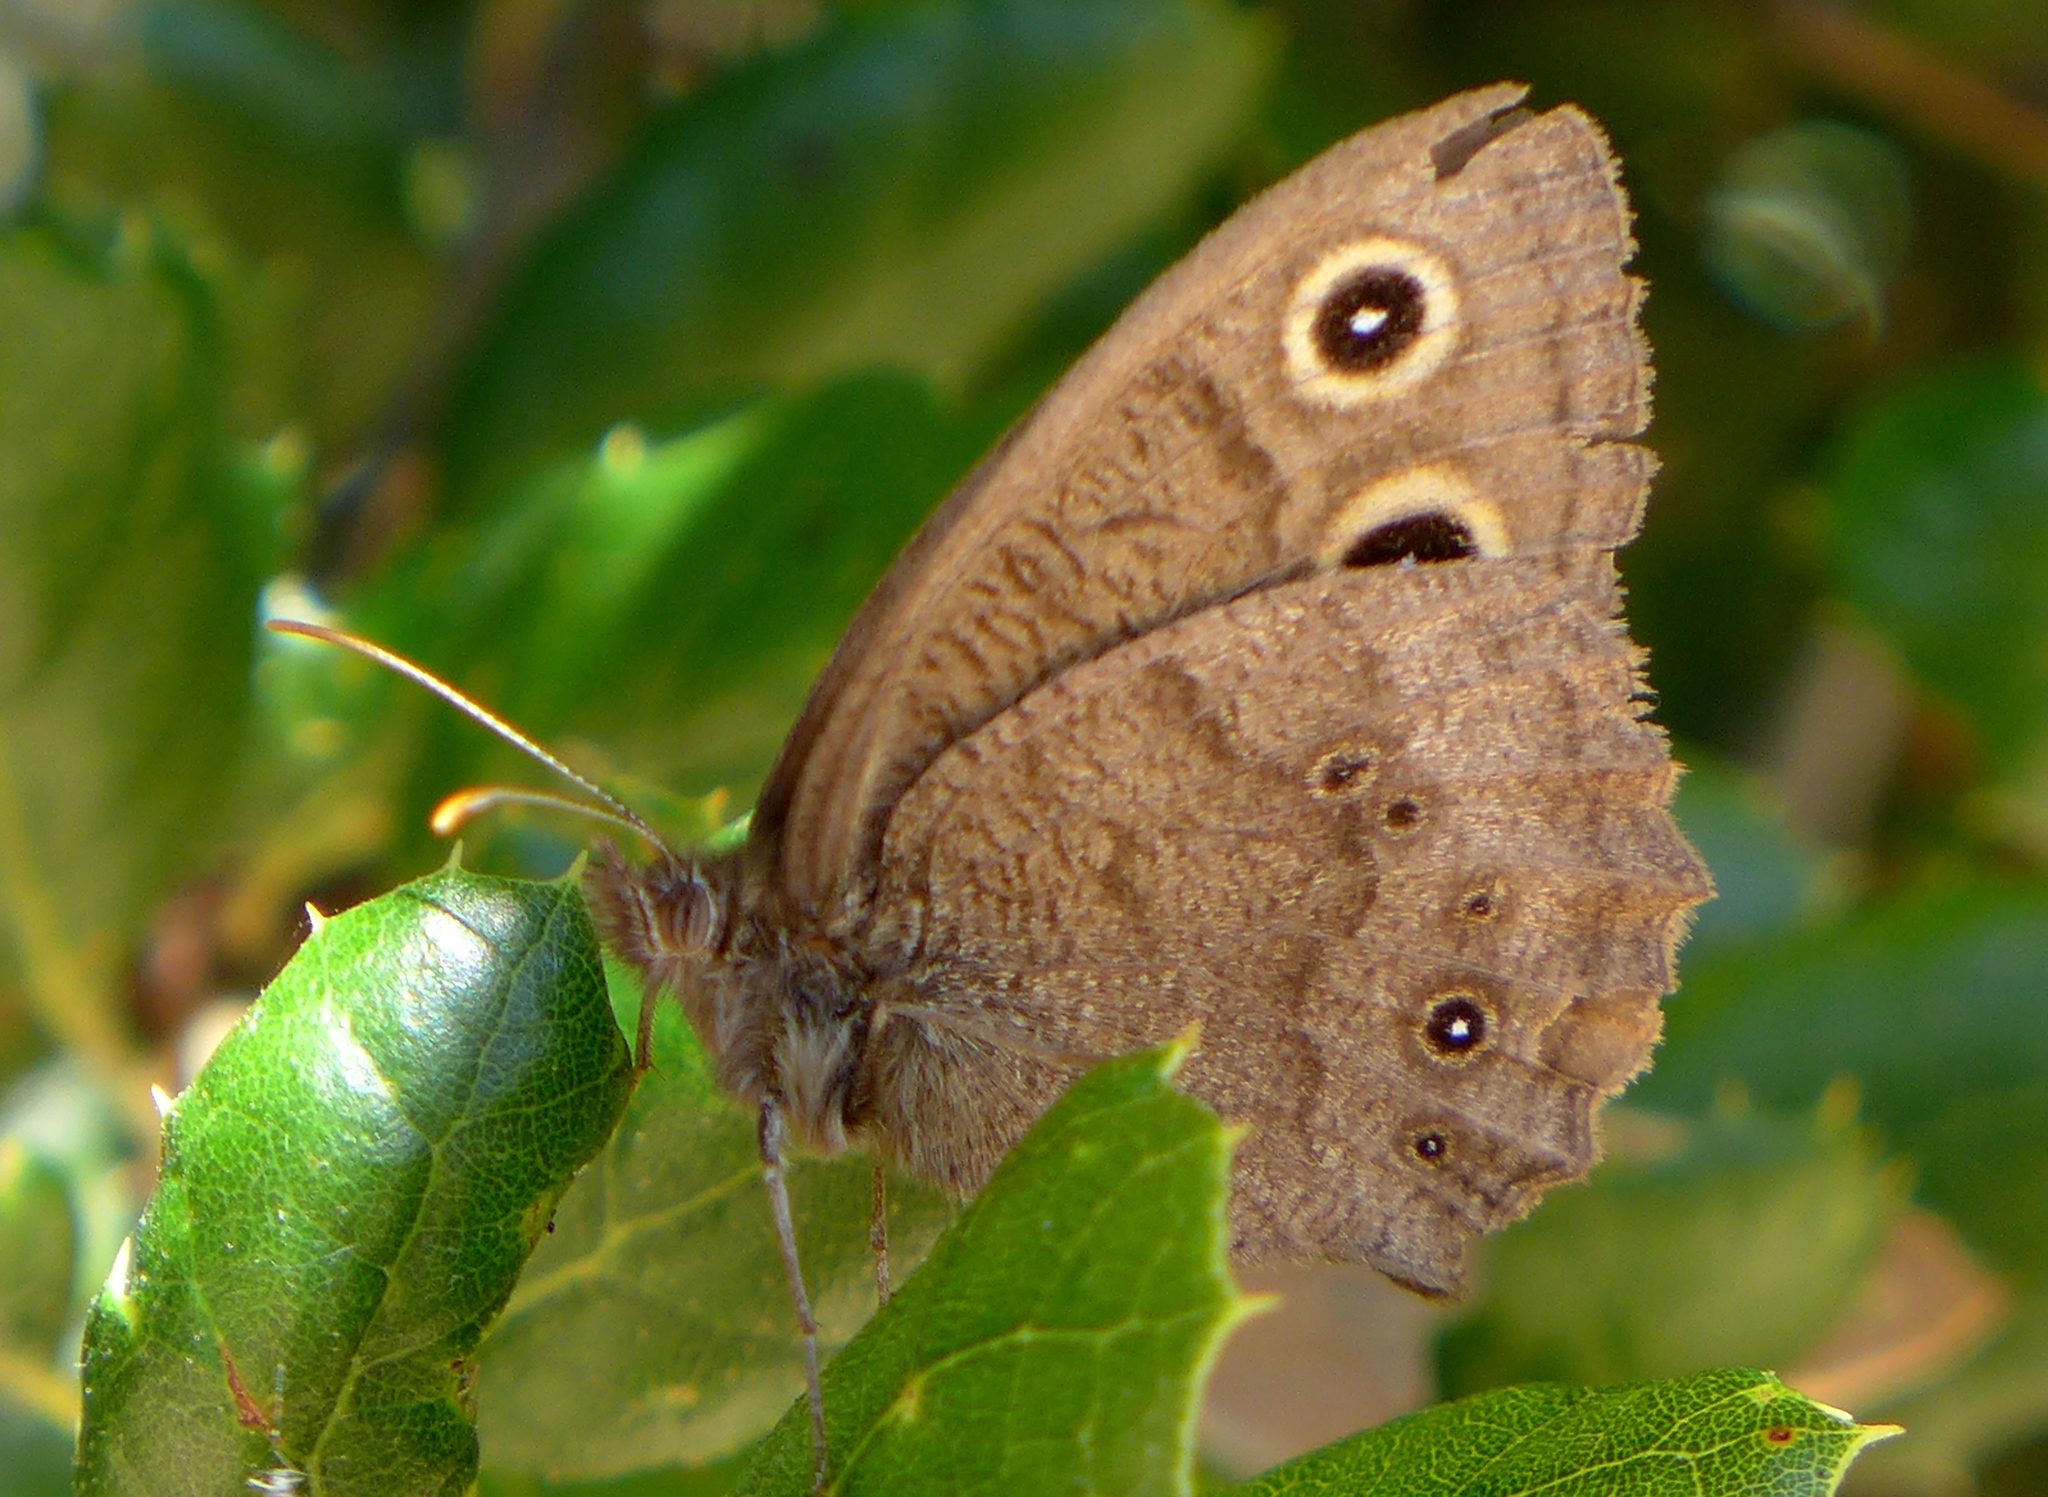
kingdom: Animalia
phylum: Arthropoda
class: Insecta
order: Lepidoptera
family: Nymphalidae
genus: Cercyonis
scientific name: Cercyonis pegala
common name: Common wood-nymph
